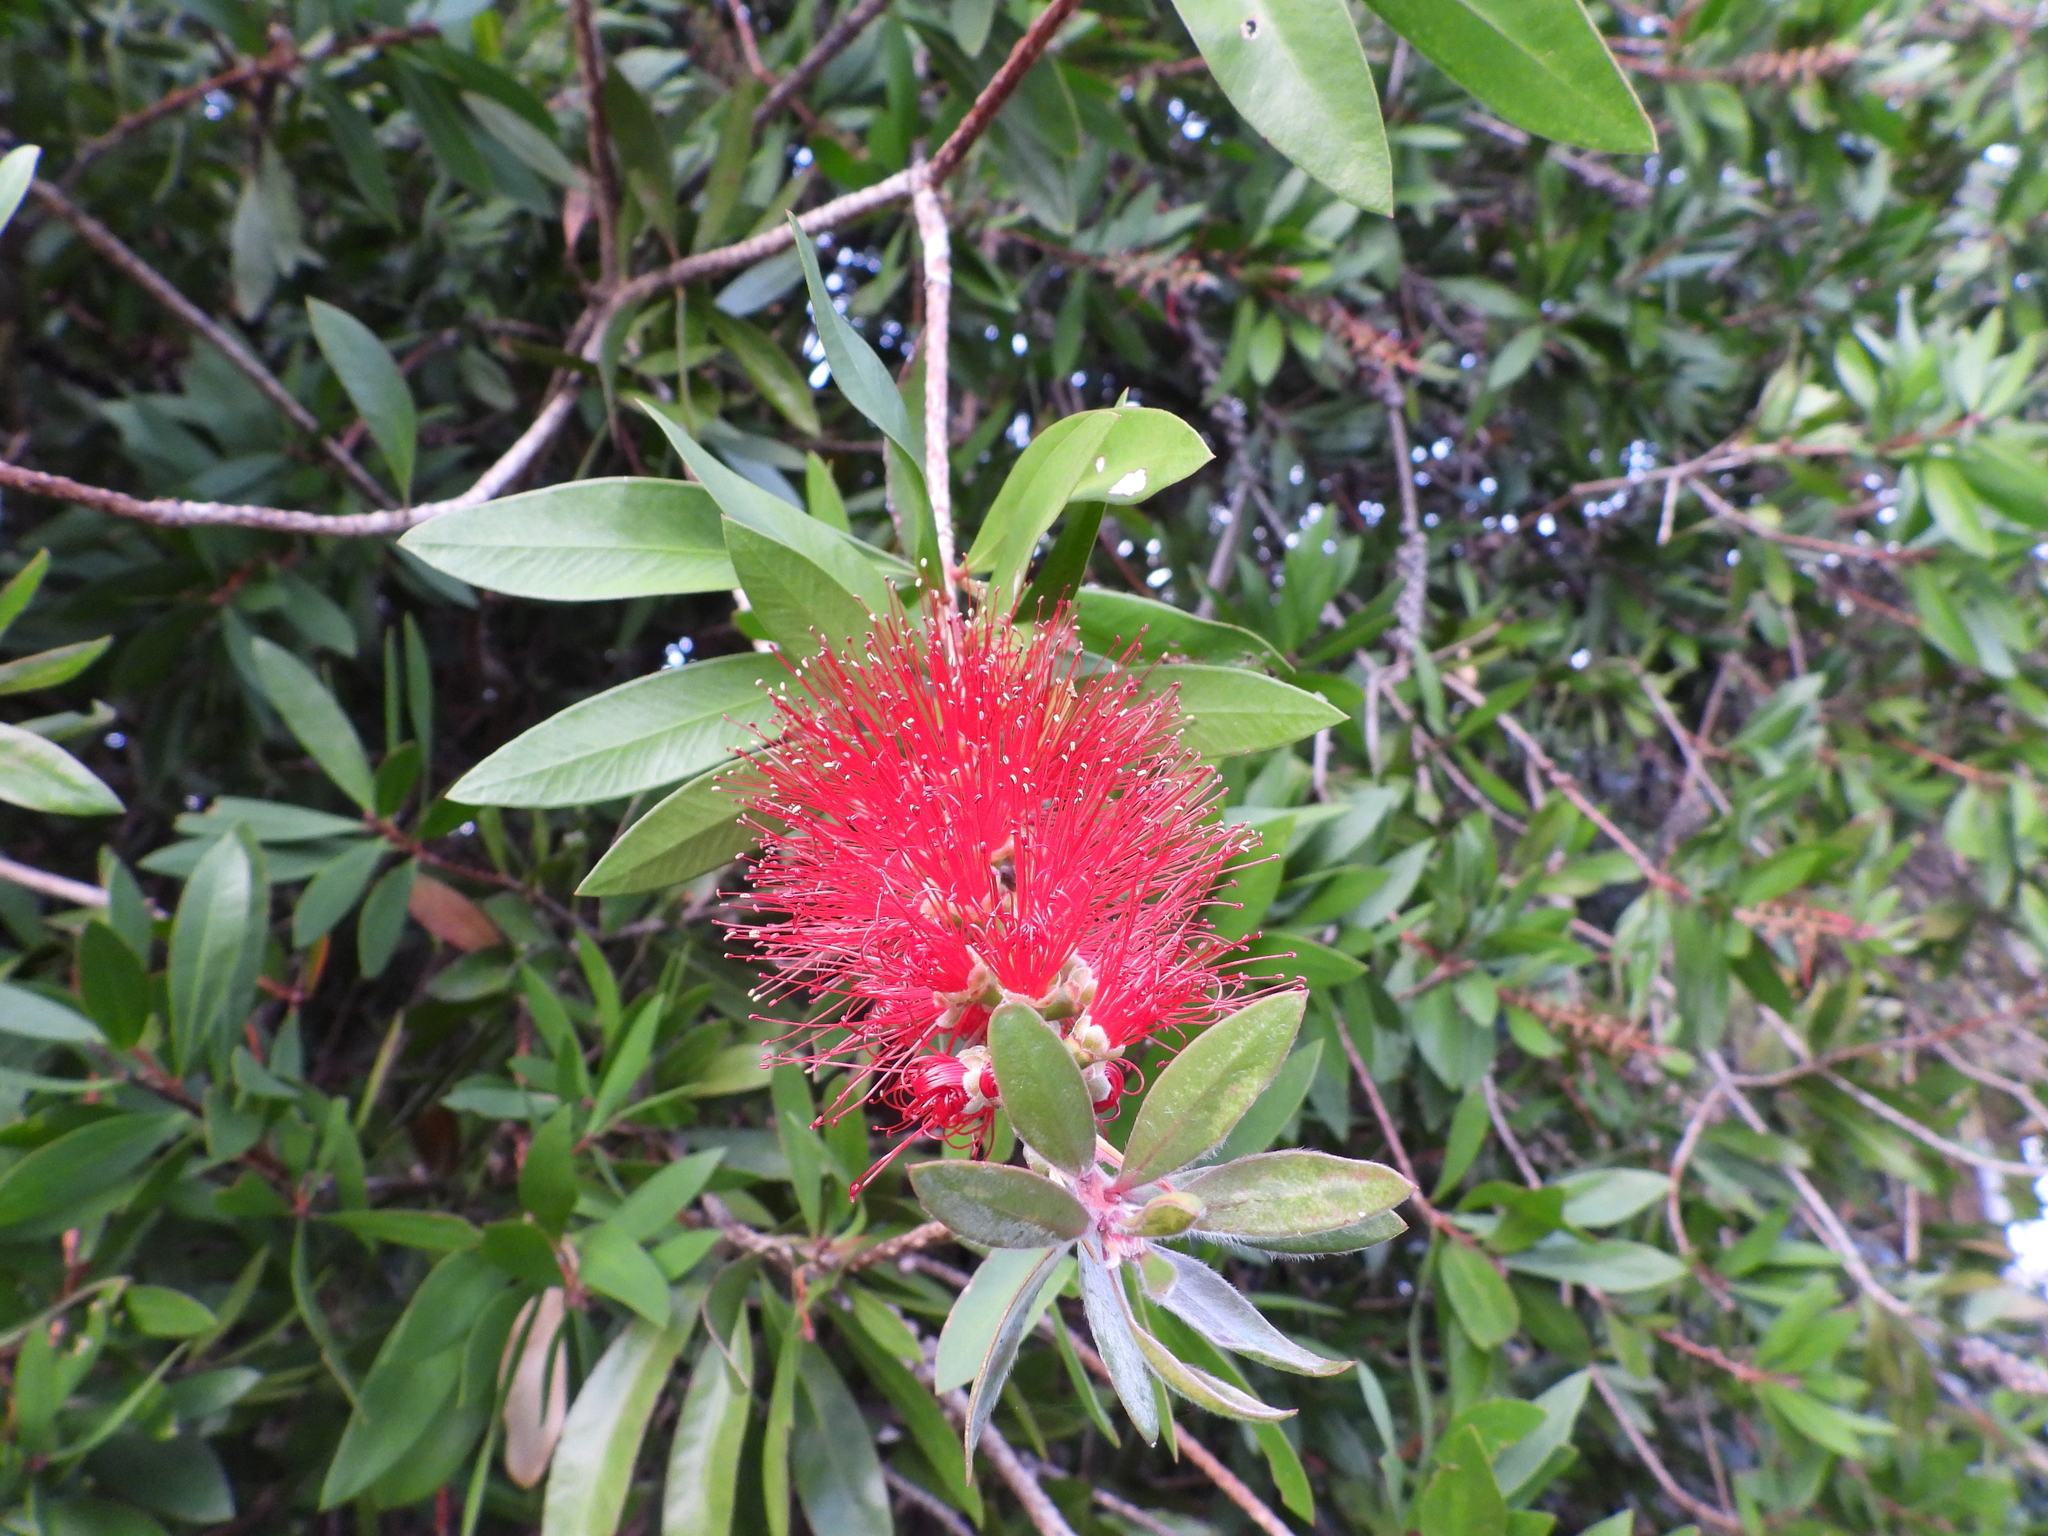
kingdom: Plantae
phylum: Tracheophyta
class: Magnoliopsida
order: Myrtales
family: Myrtaceae
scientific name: Myrtaceae
